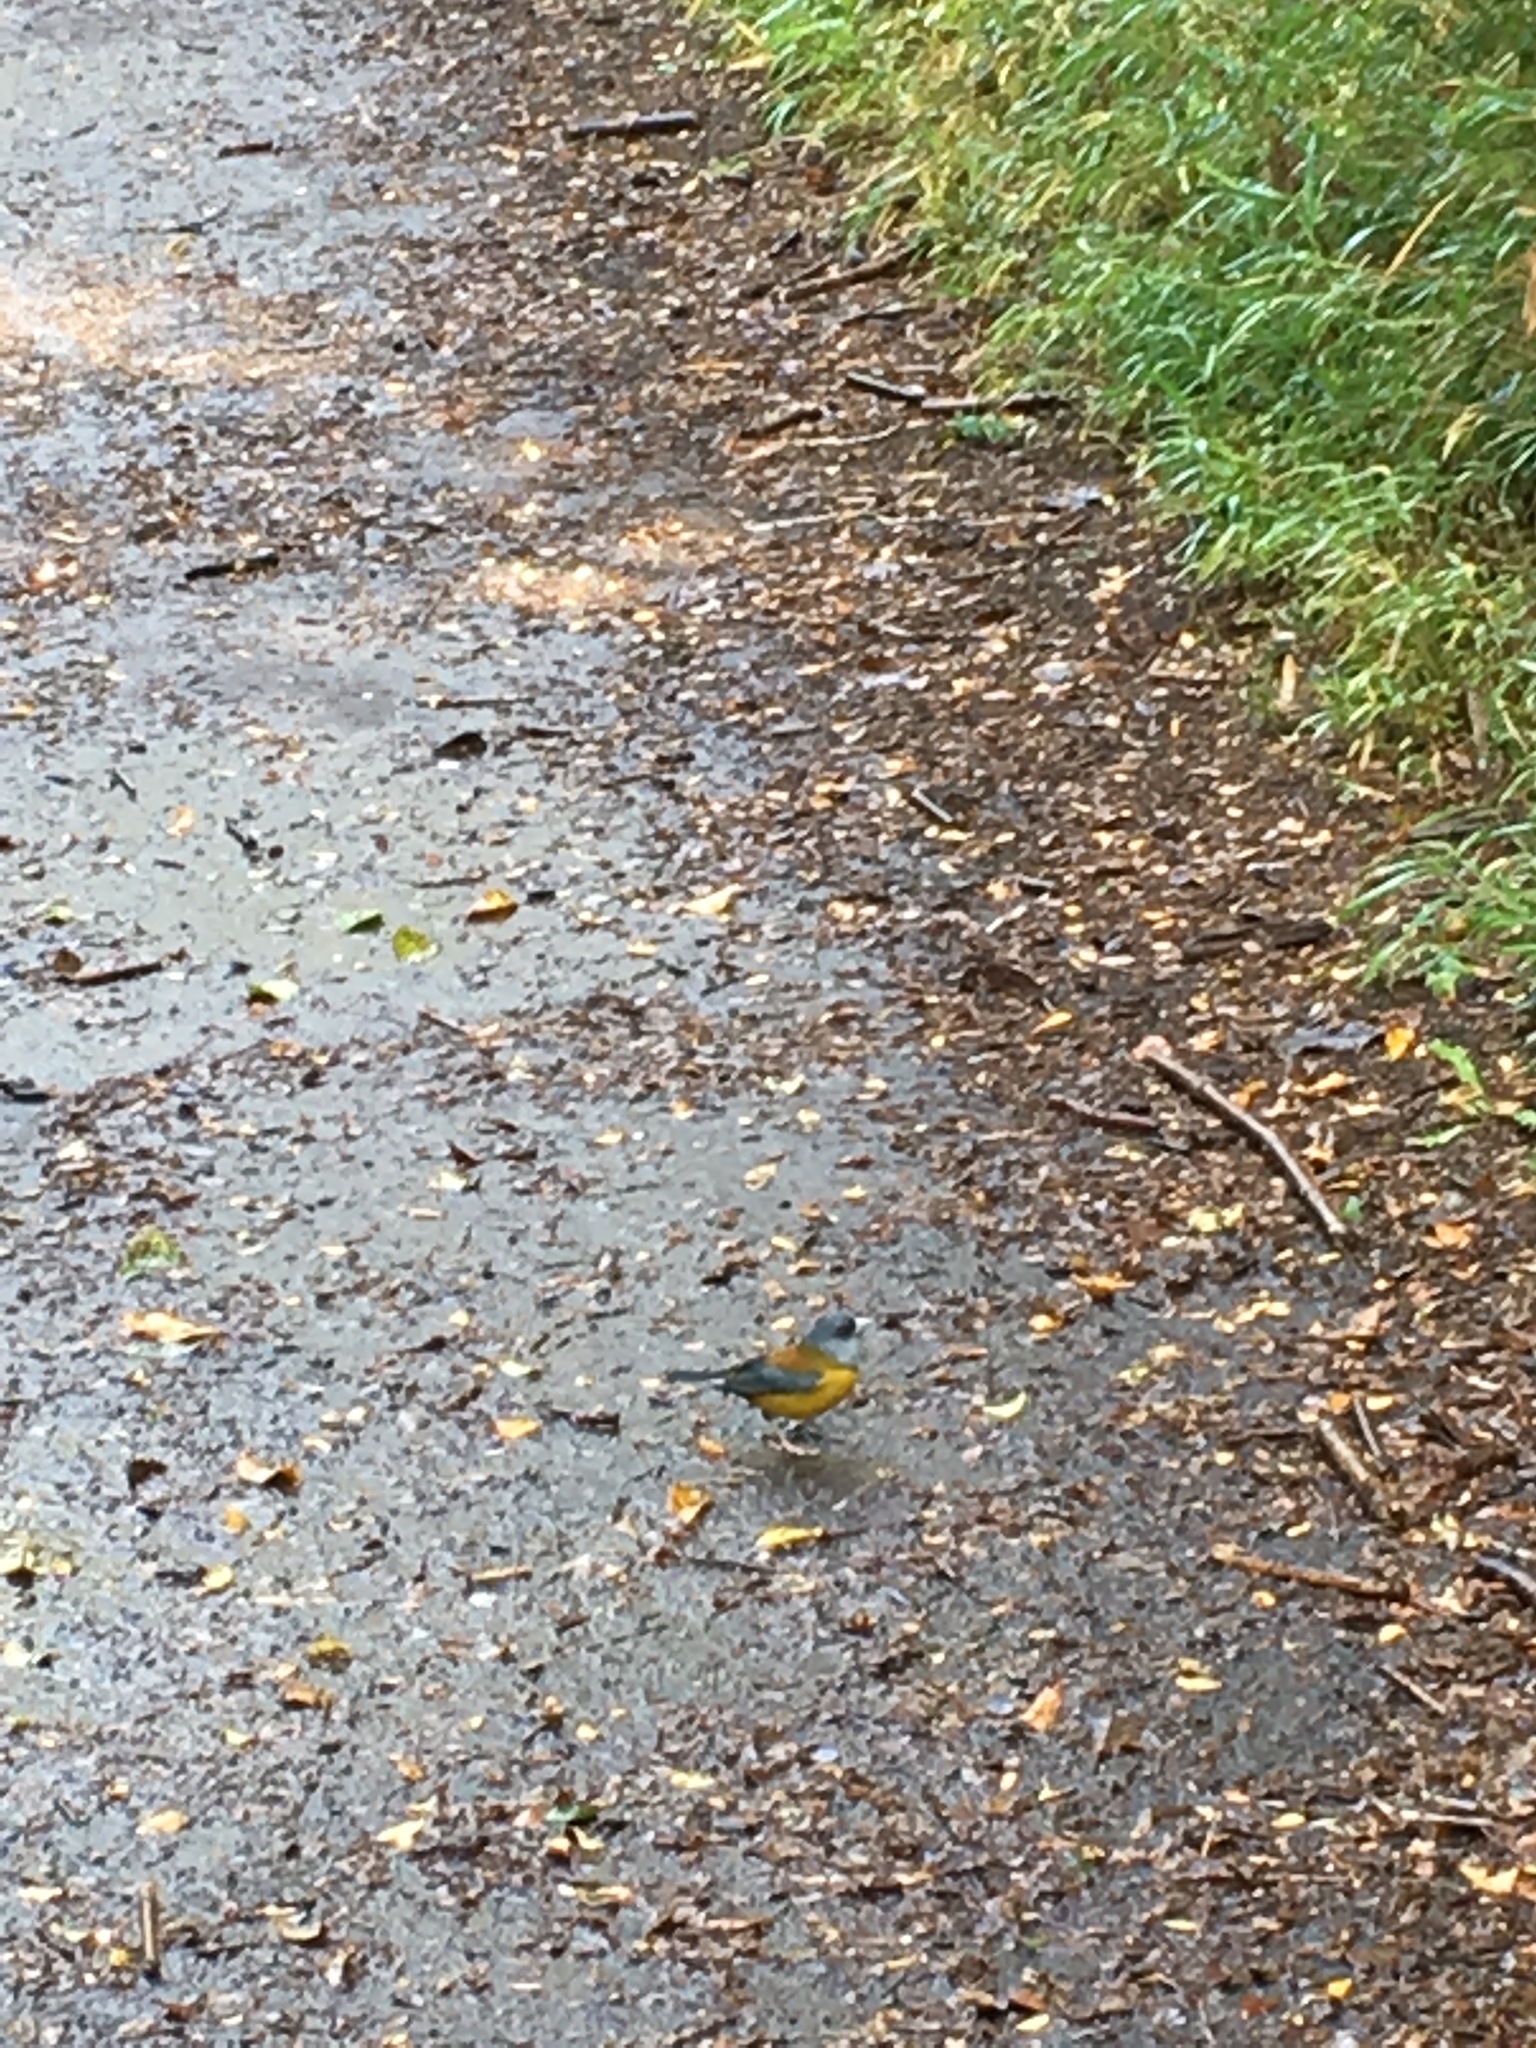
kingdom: Animalia
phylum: Chordata
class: Aves
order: Passeriformes
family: Thraupidae
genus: Phrygilus
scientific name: Phrygilus patagonicus
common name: Patagonian sierra finch
